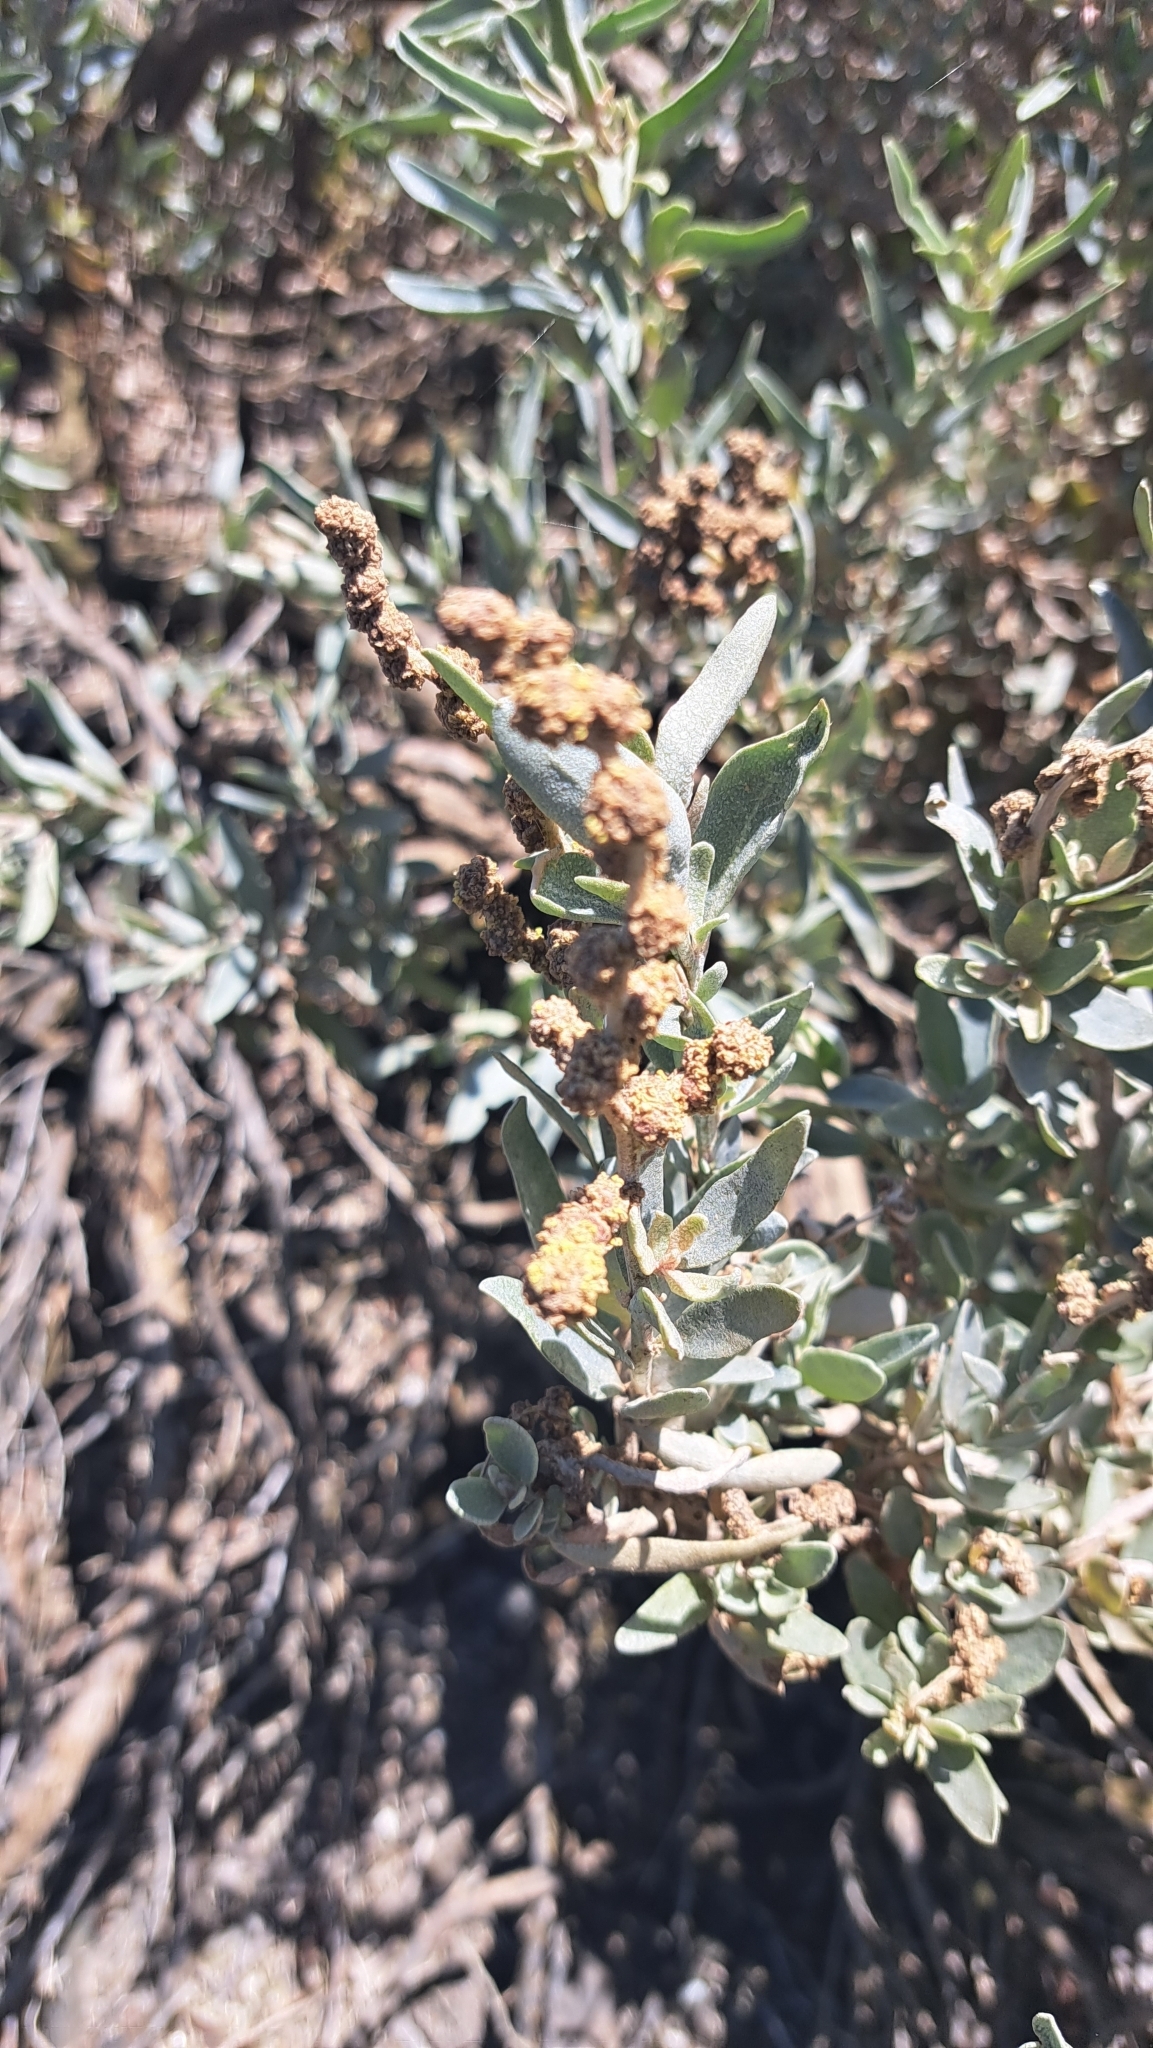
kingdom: Plantae
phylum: Tracheophyta
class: Magnoliopsida
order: Caryophyllales
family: Amaranthaceae
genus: Atriplex
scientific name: Atriplex cinerea
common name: Grey saltbush
